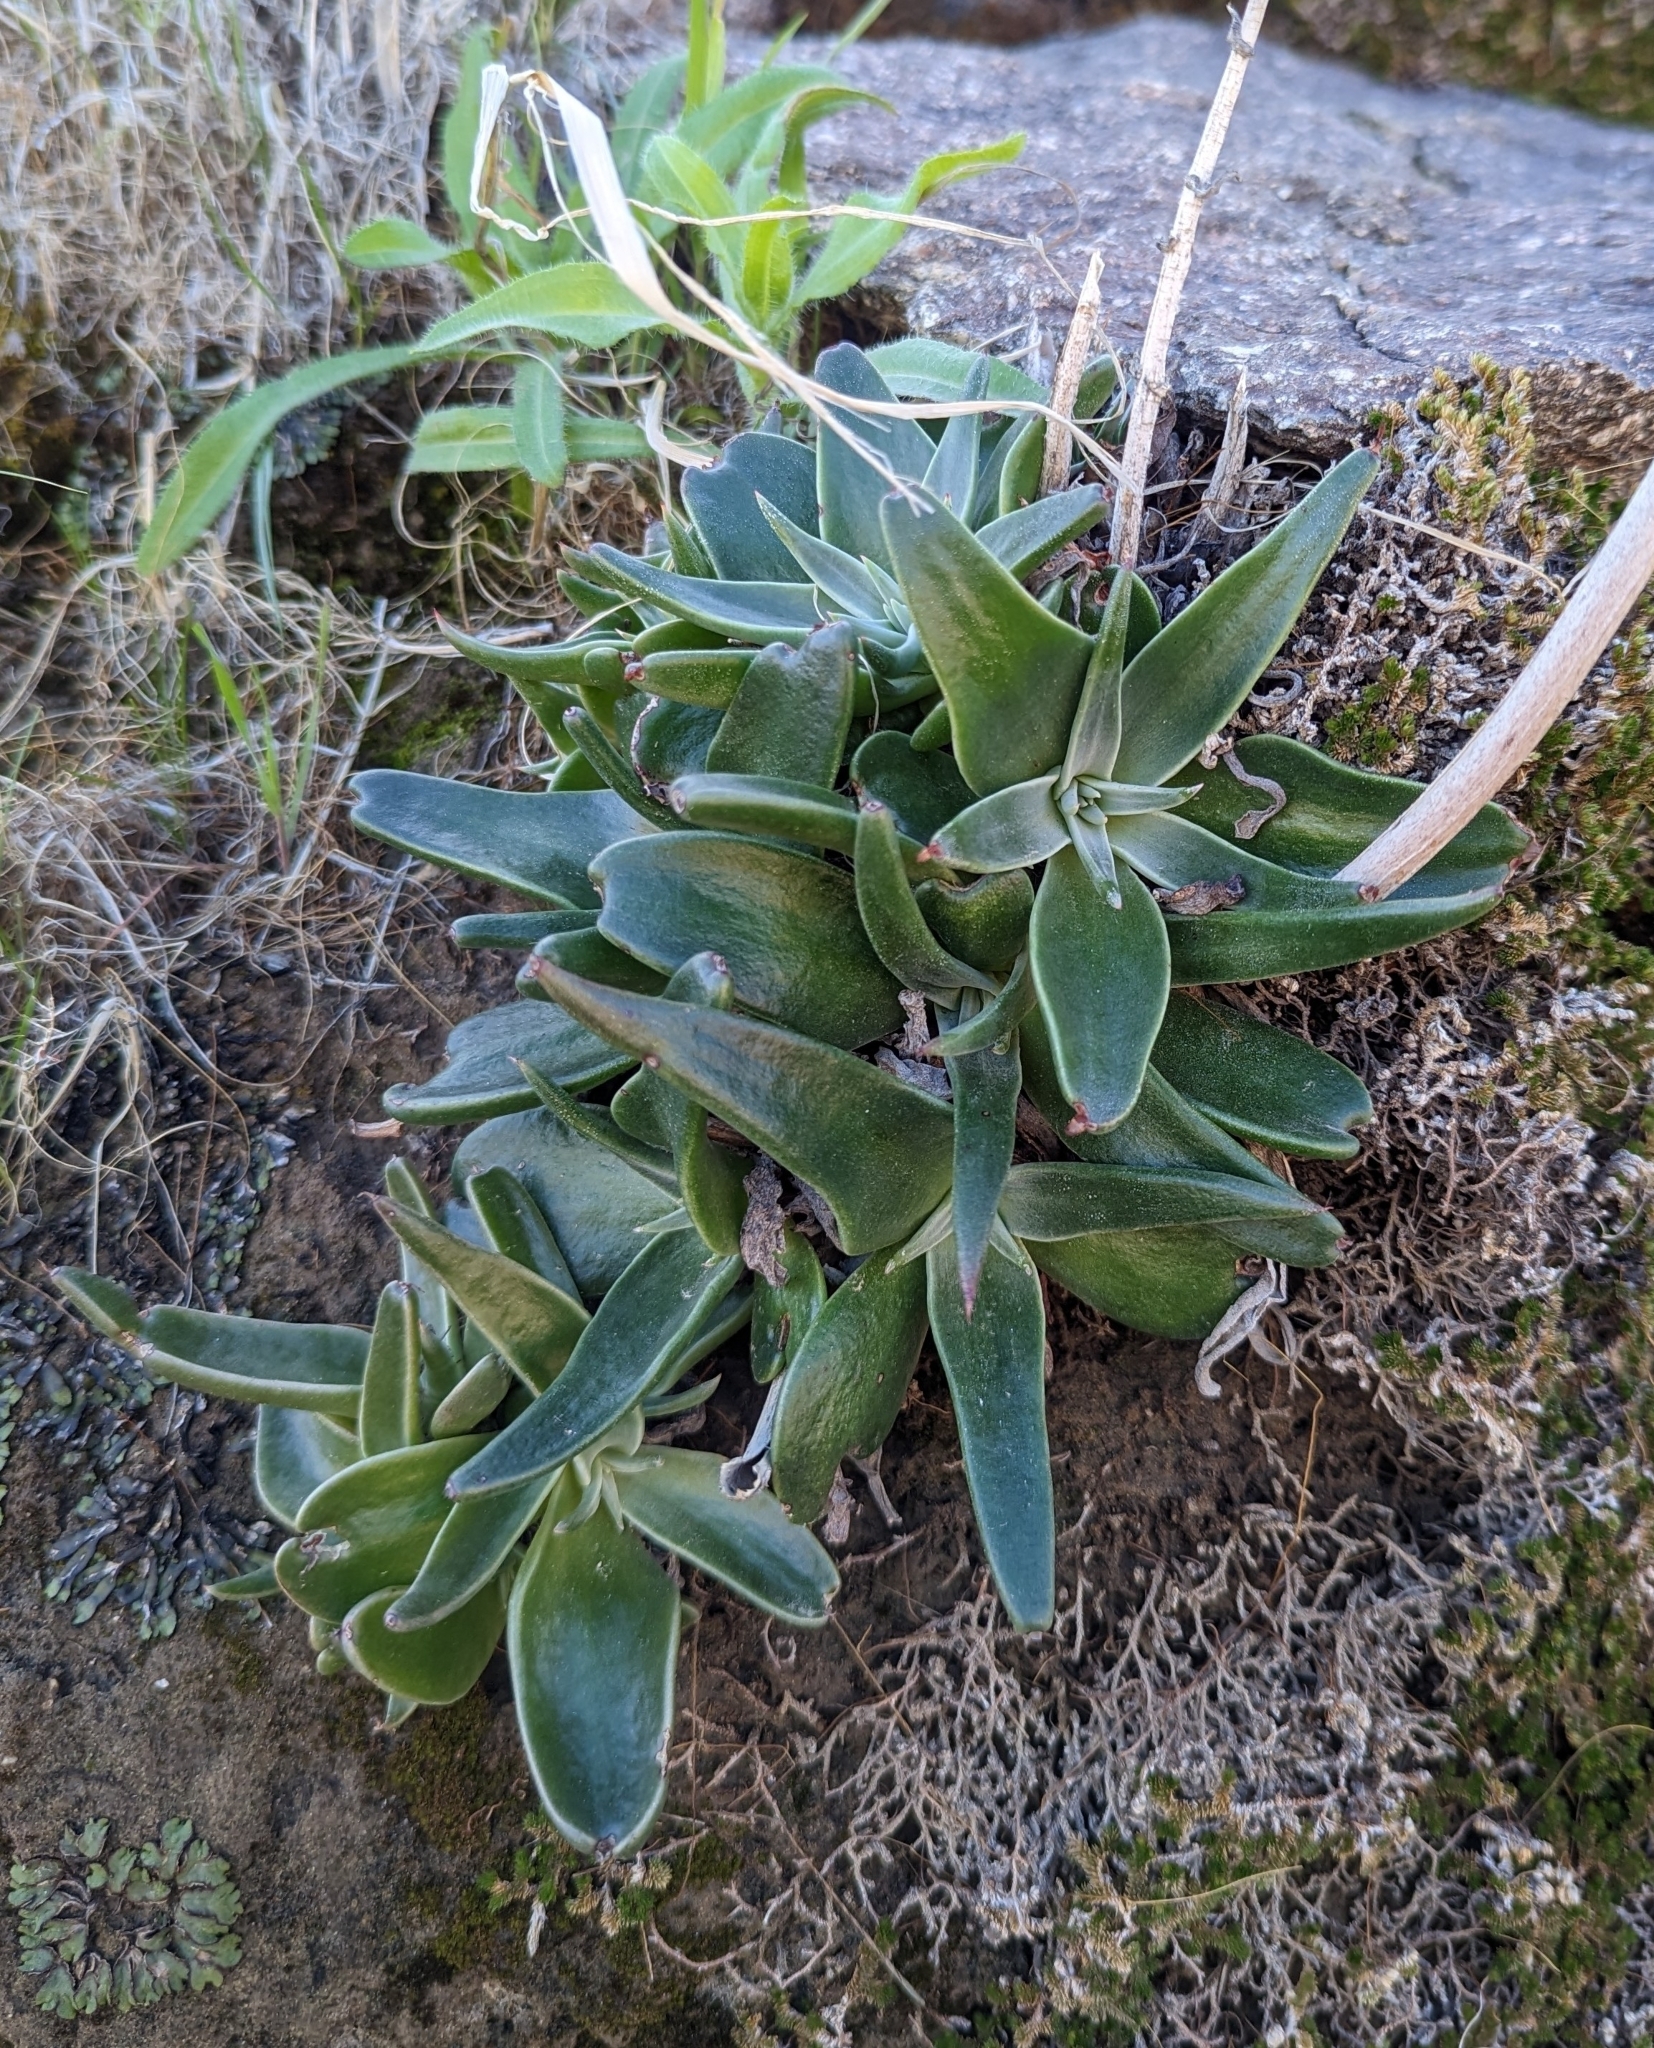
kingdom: Plantae
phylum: Tracheophyta
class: Magnoliopsida
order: Saxifragales
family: Crassulaceae
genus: Dudleya
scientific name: Dudleya lanceolata
